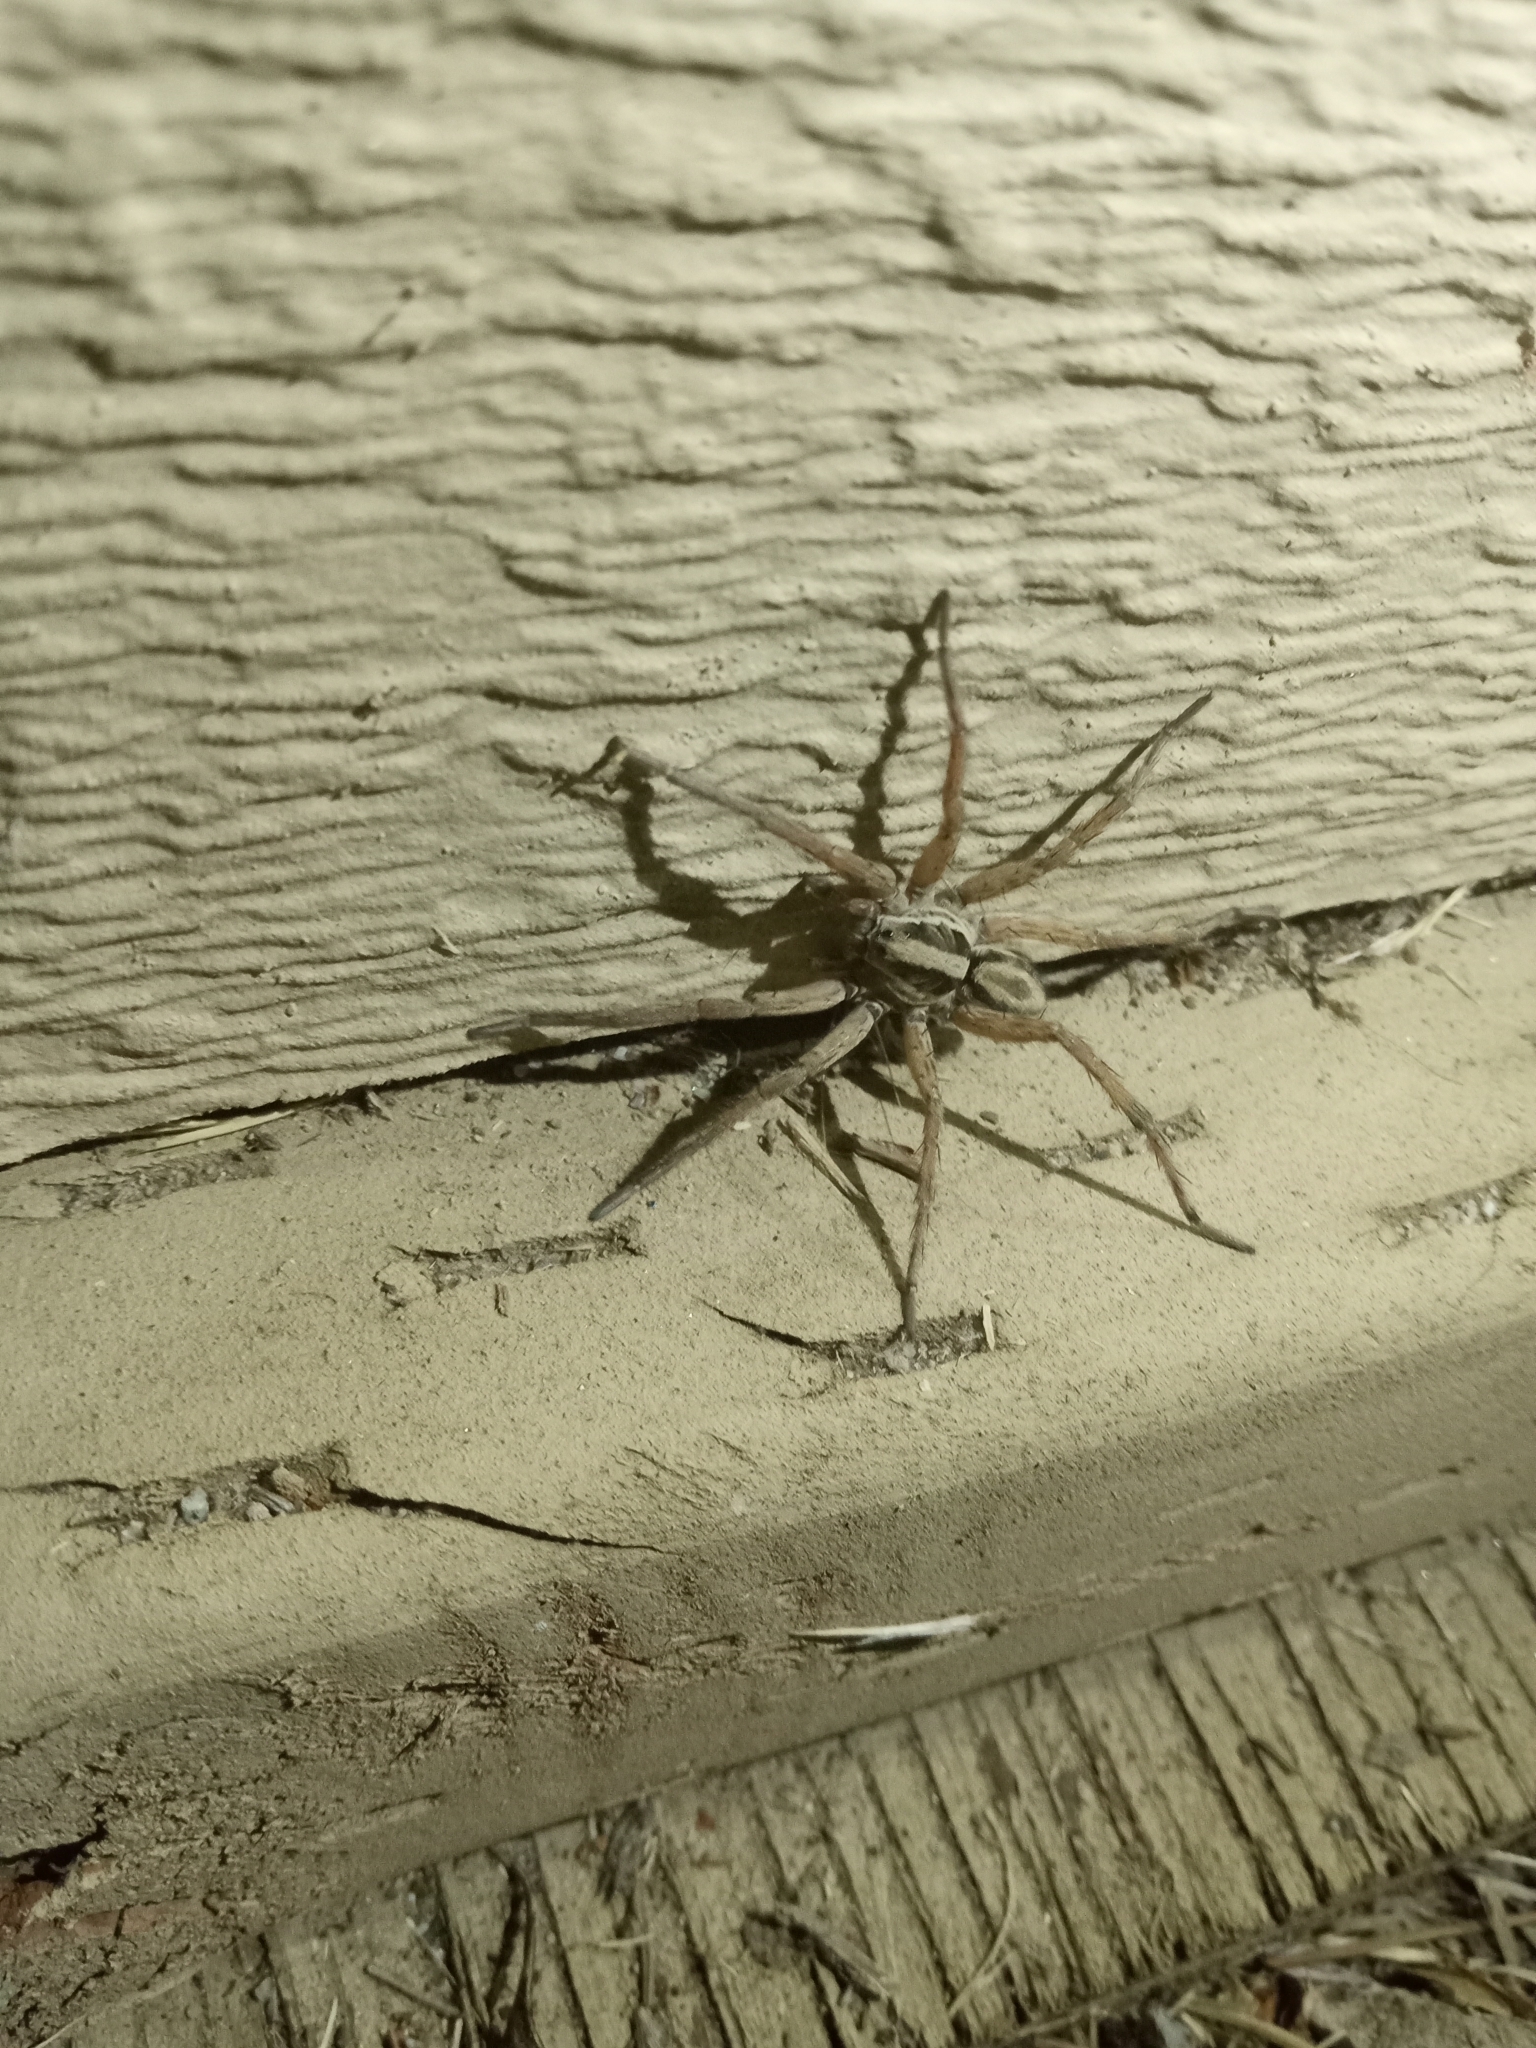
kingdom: Animalia
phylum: Arthropoda
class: Arachnida
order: Araneae
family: Lycosidae
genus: Schizocosa
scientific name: Schizocosa mccooki
